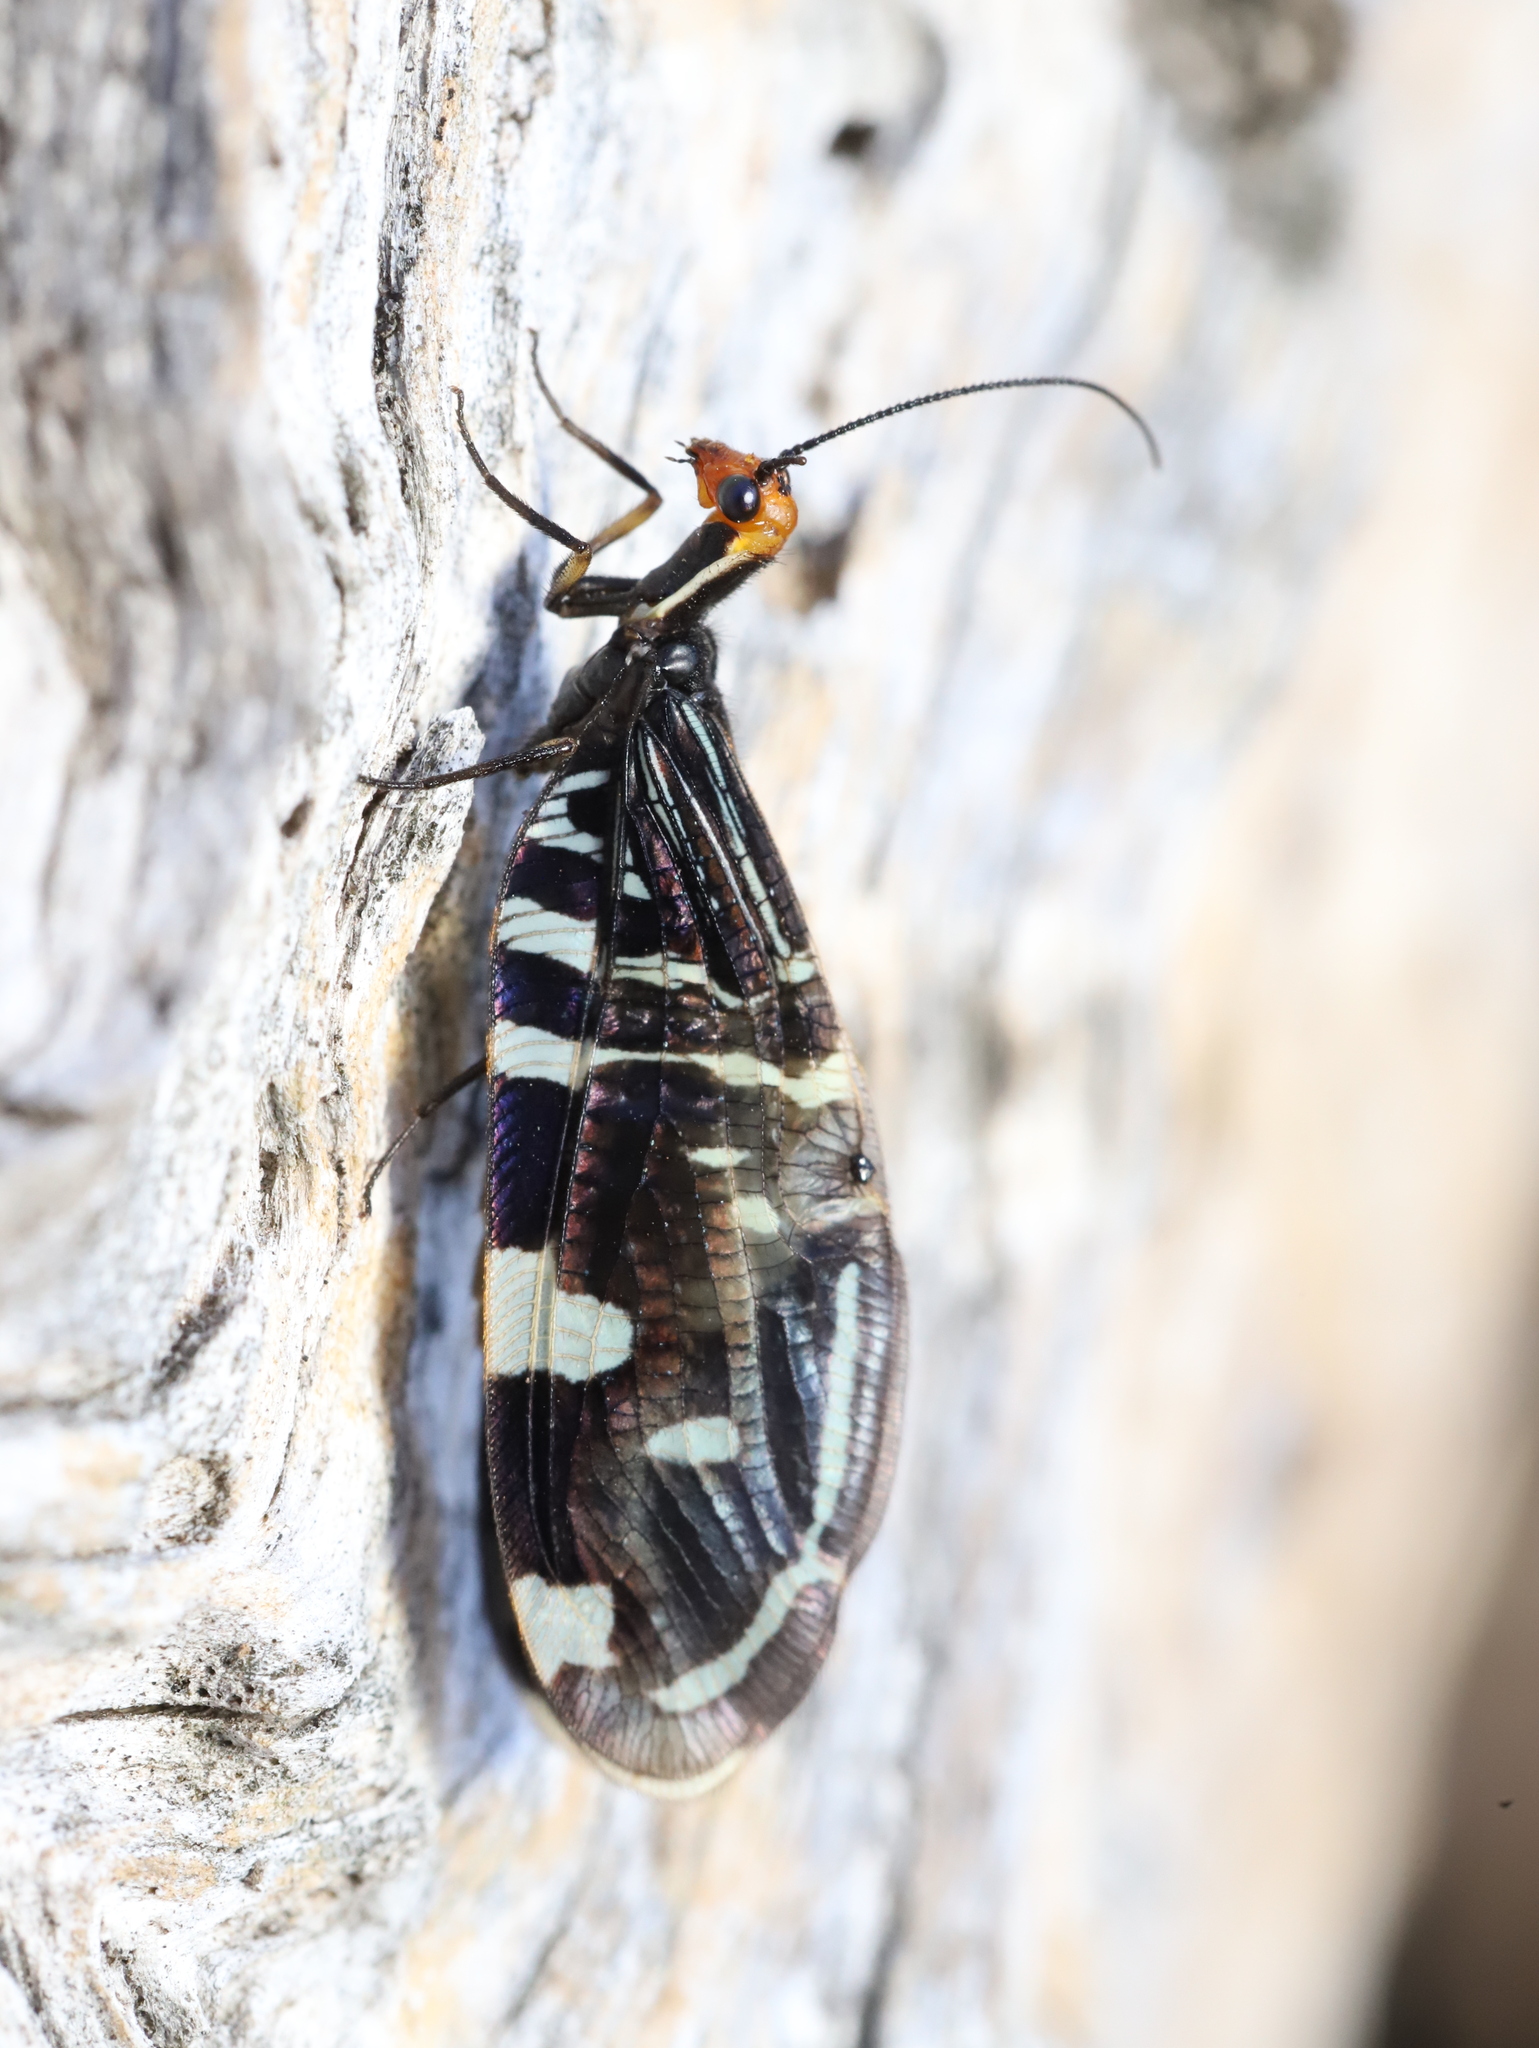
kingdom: Animalia
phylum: Arthropoda
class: Insecta
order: Neuroptera
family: Osmylidae
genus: Porismus
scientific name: Porismus strigatus
